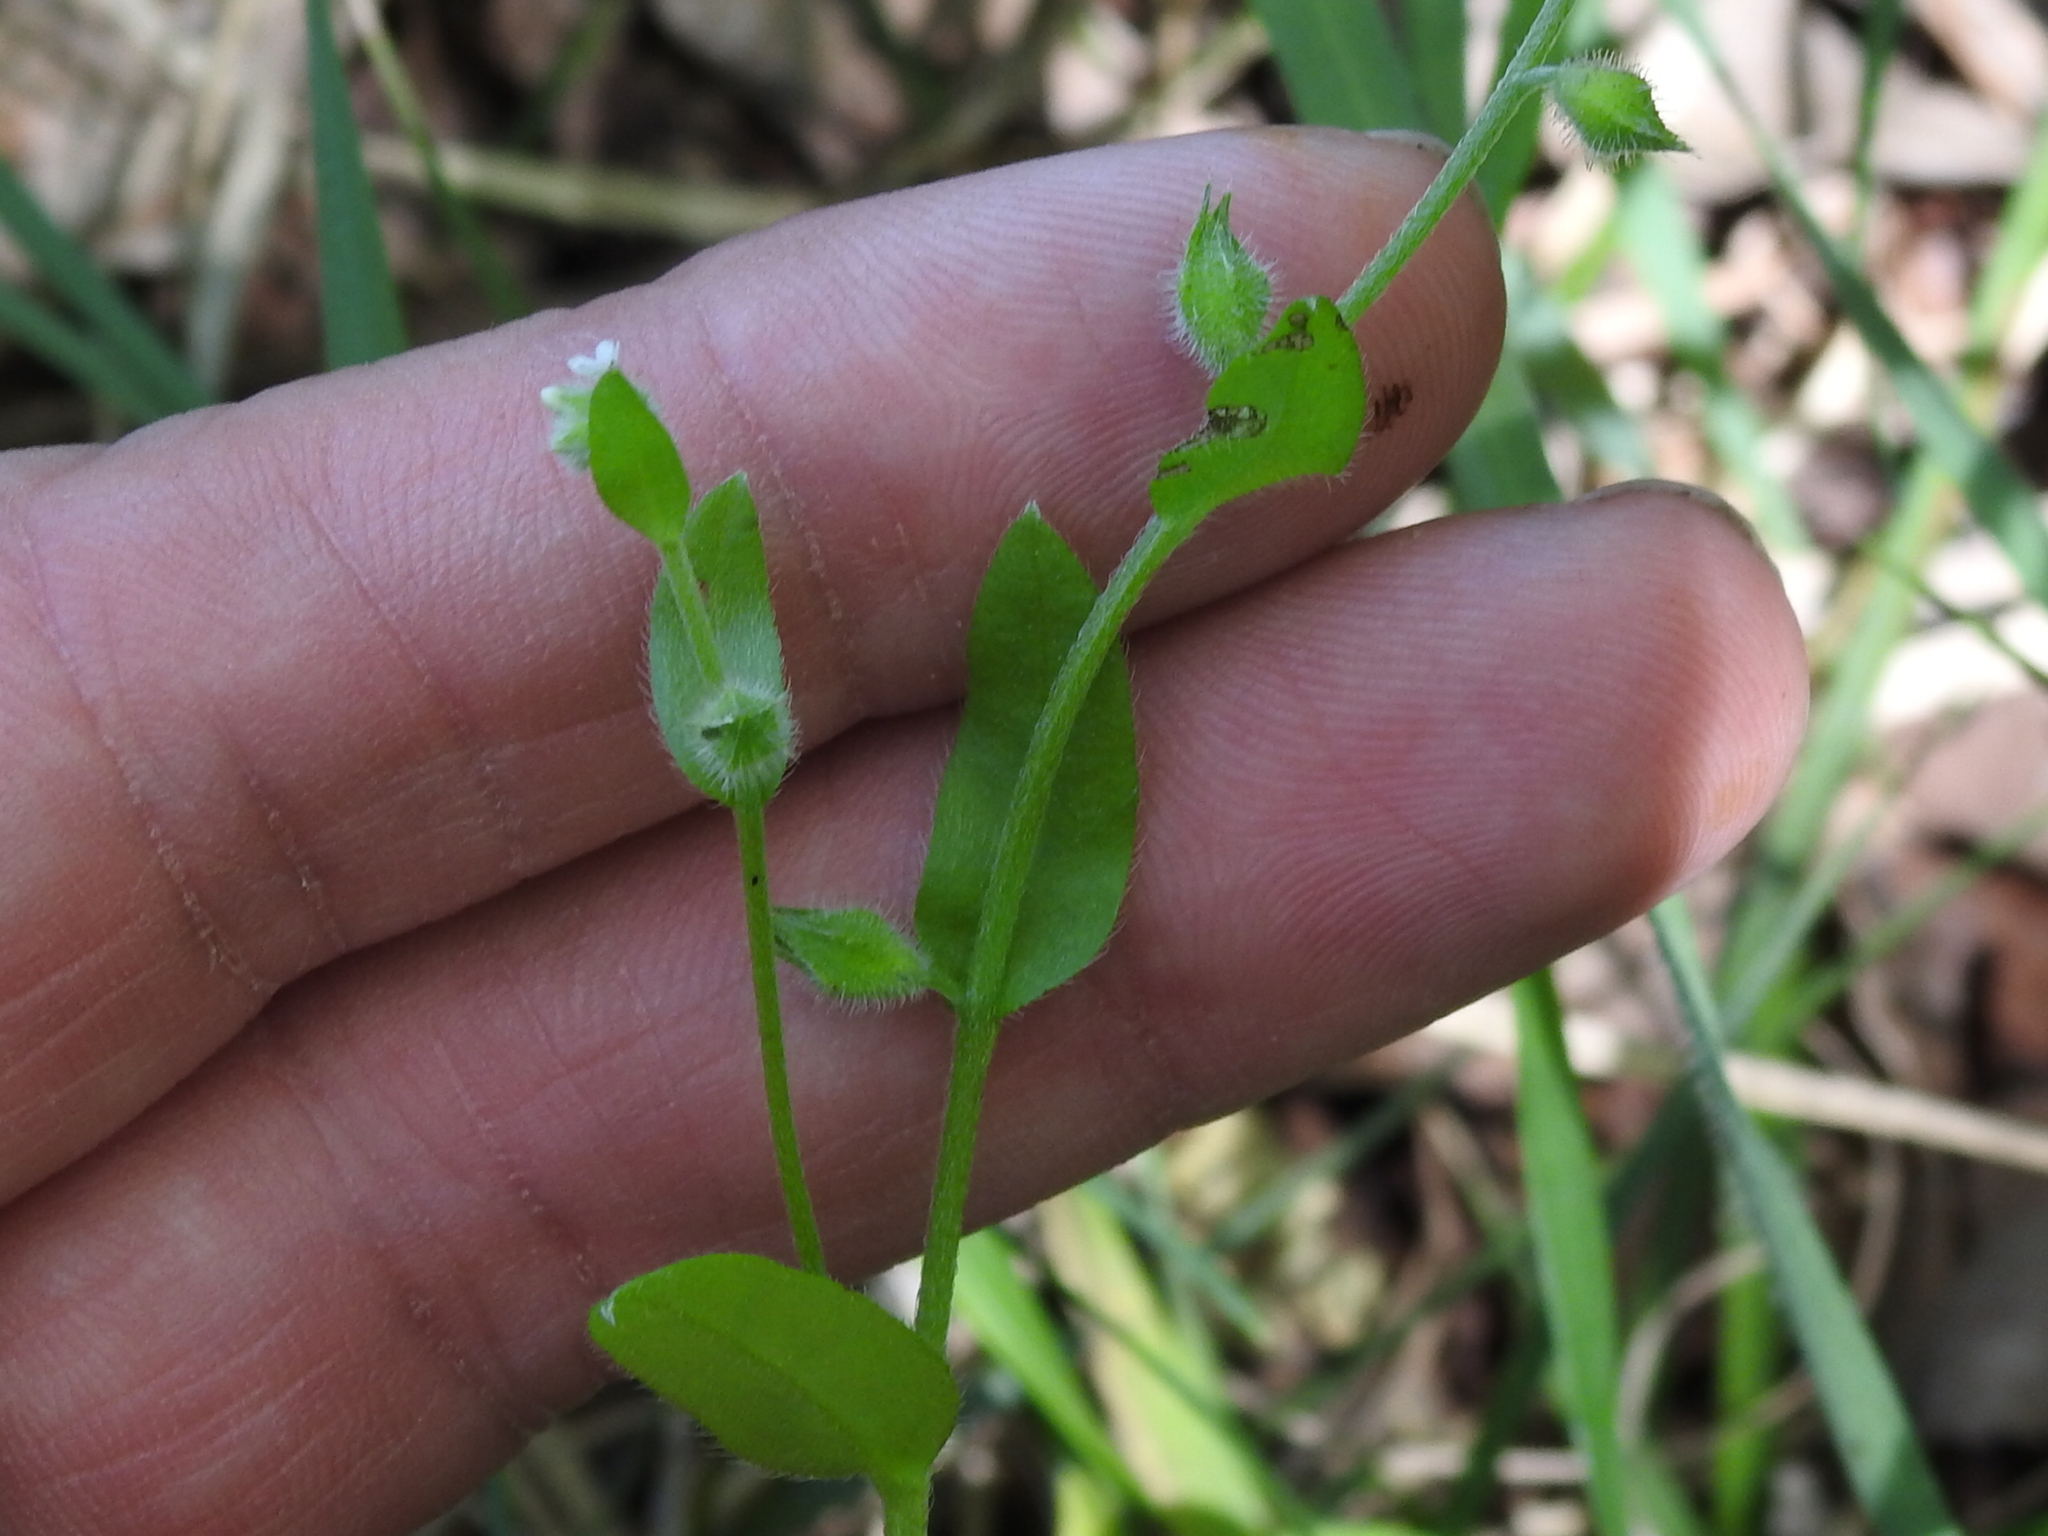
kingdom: Plantae
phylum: Tracheophyta
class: Magnoliopsida
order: Boraginales
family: Boraginaceae
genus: Myosotis
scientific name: Myosotis macrosperma
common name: Large-seed forget-me-not
